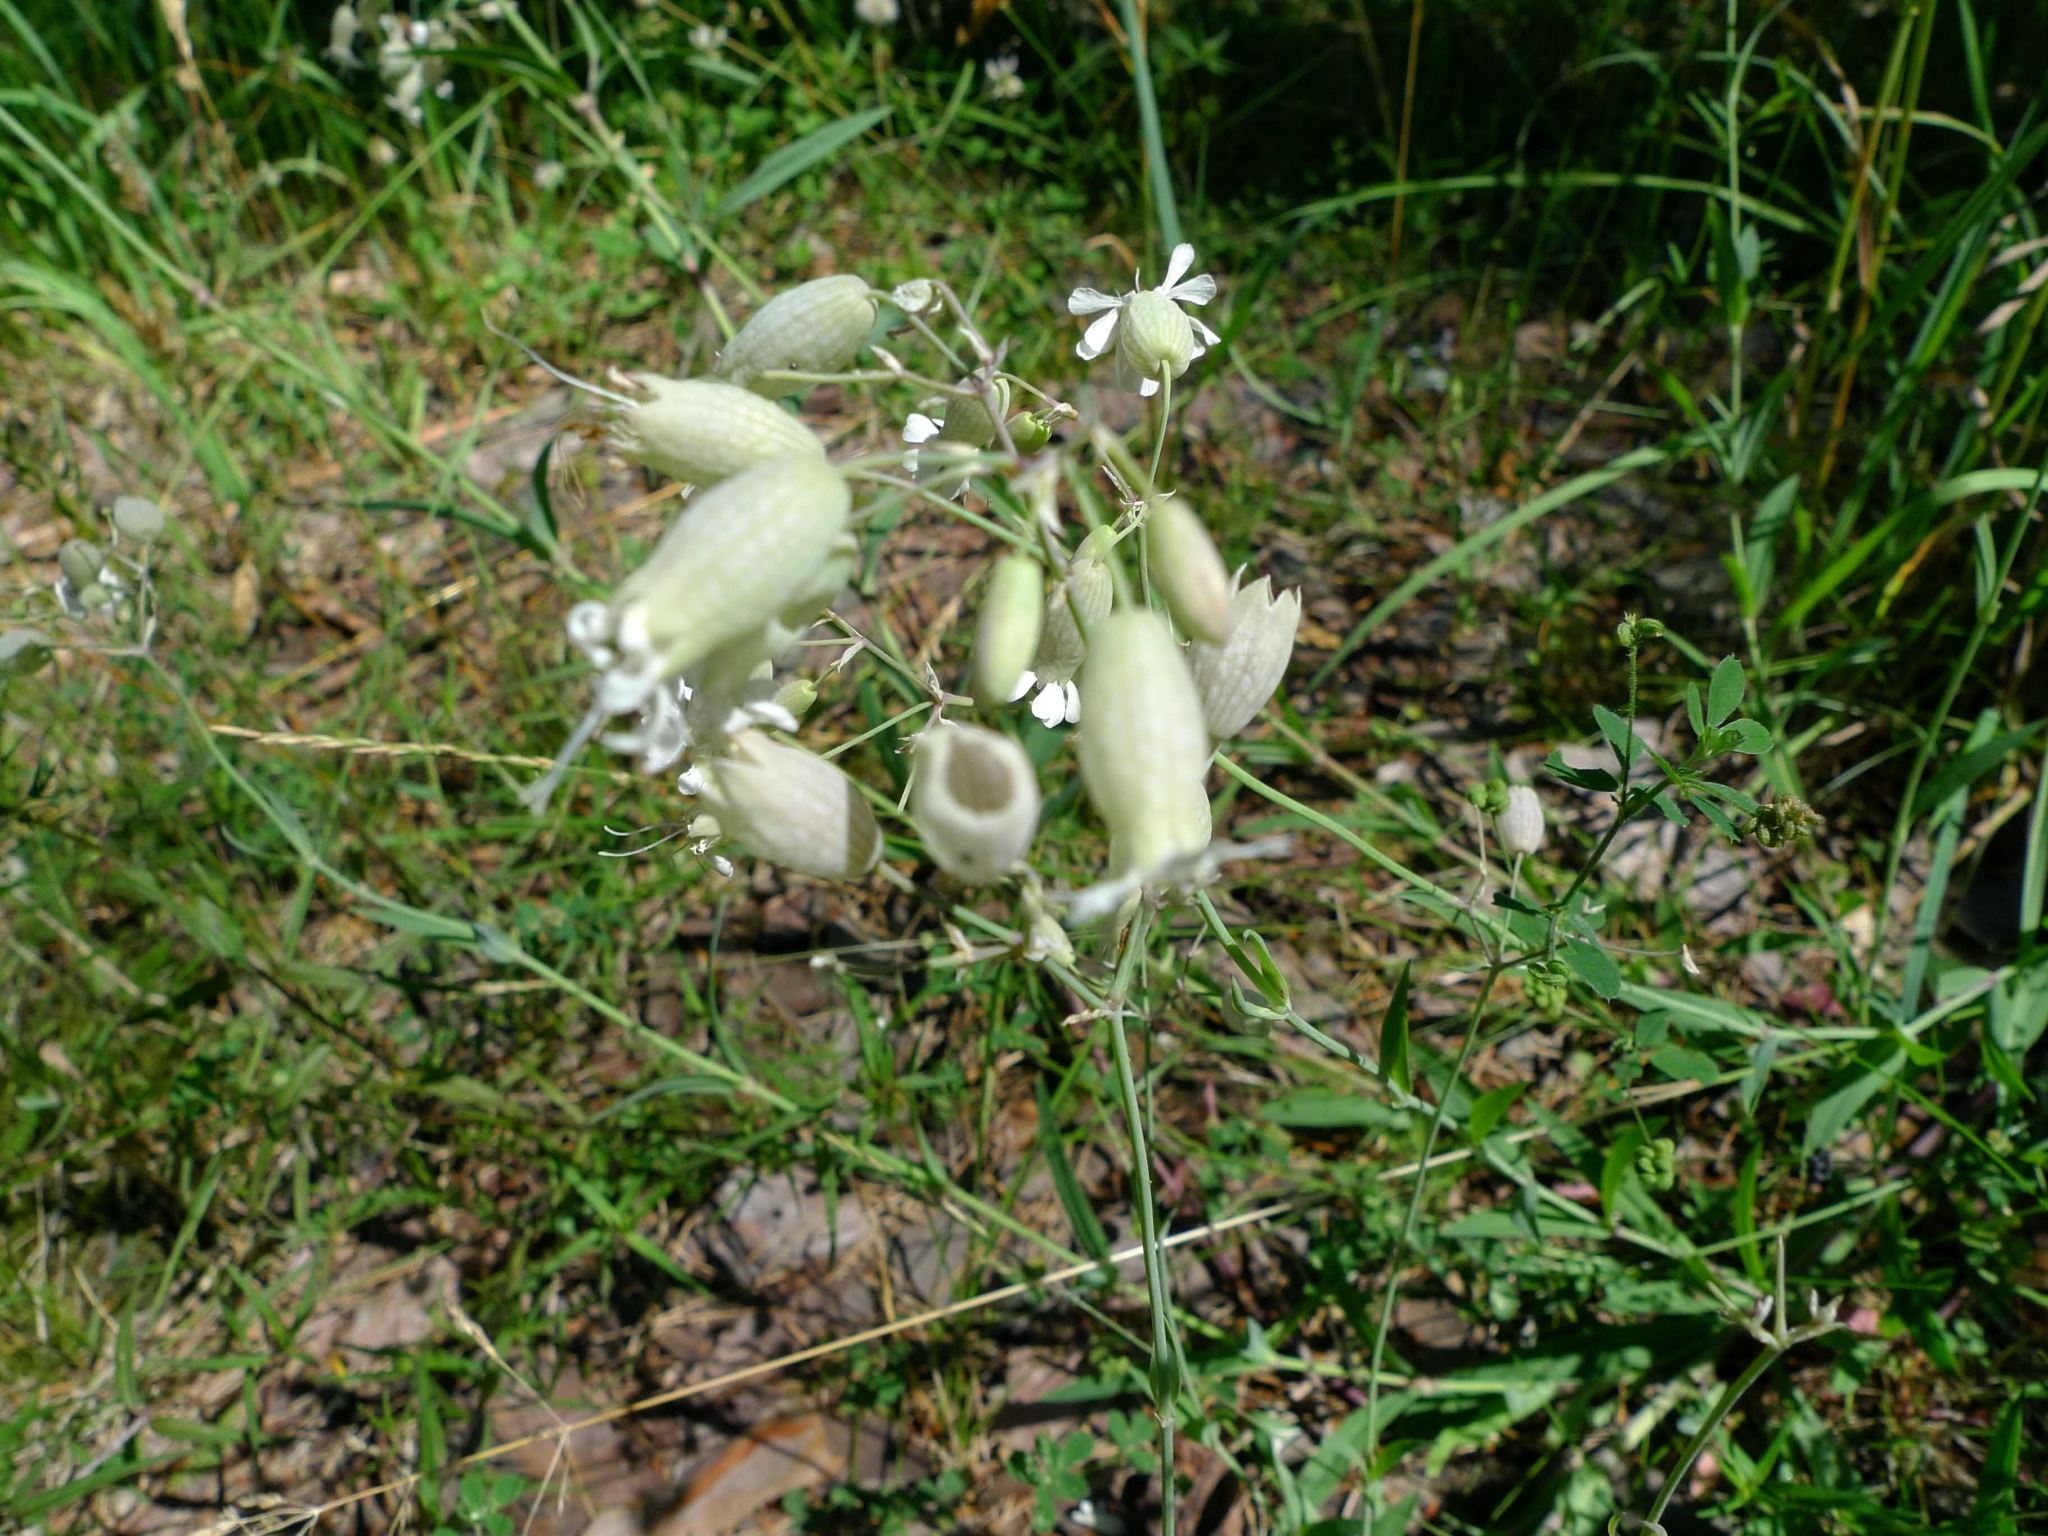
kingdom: Plantae
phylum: Tracheophyta
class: Magnoliopsida
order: Caryophyllales
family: Caryophyllaceae
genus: Silene
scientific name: Silene vulgaris
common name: Bladder campion
